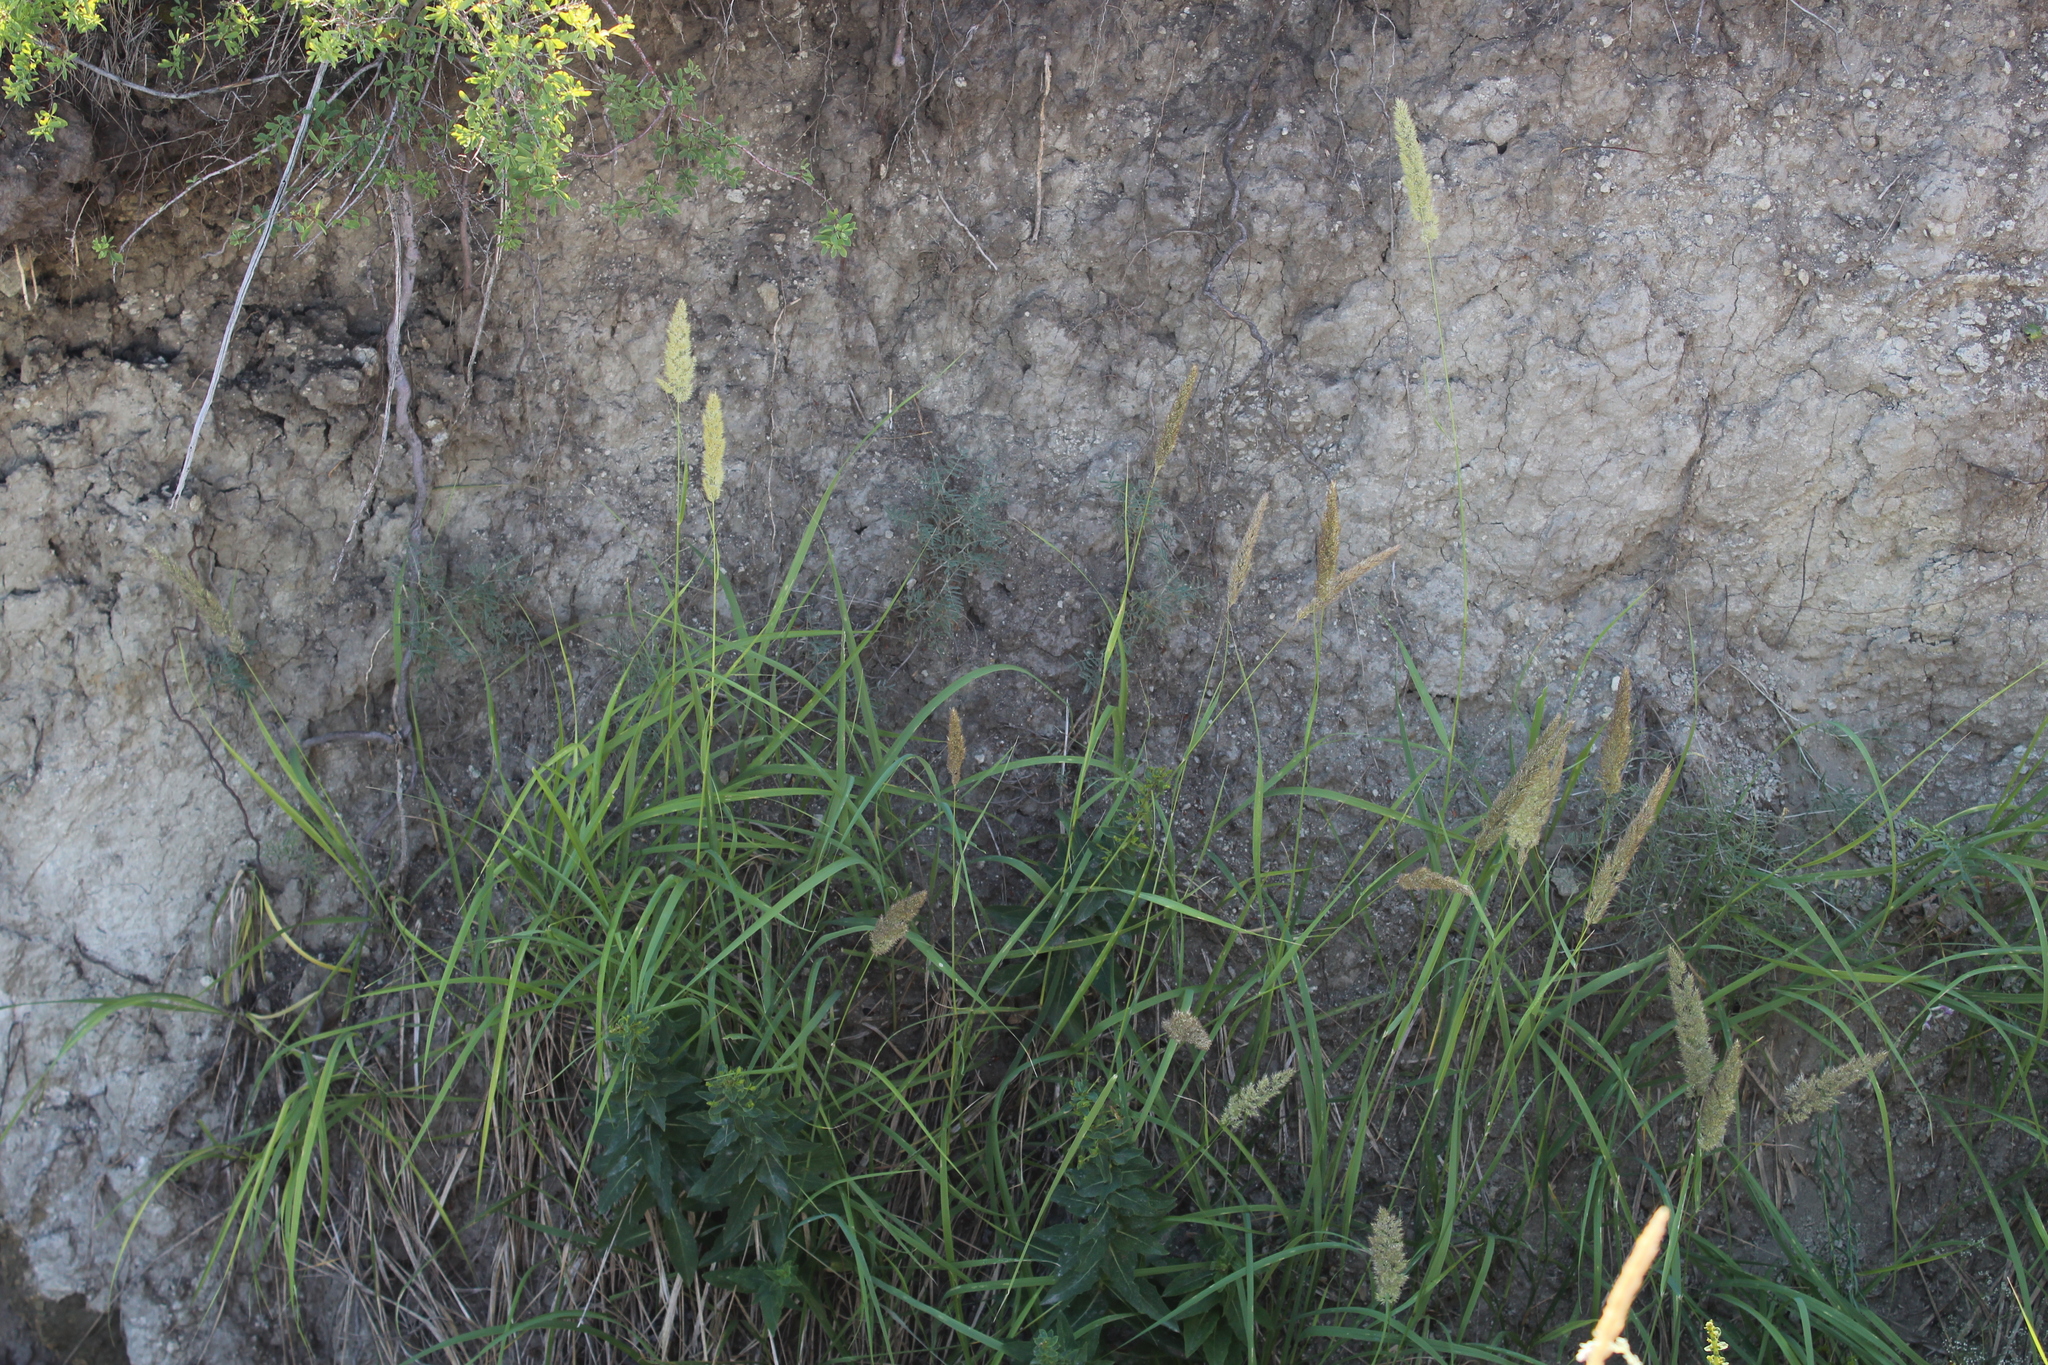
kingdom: Plantae
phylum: Tracheophyta
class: Liliopsida
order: Poales
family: Poaceae
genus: Calamagrostis
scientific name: Calamagrostis epigejos
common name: Wood small-reed
